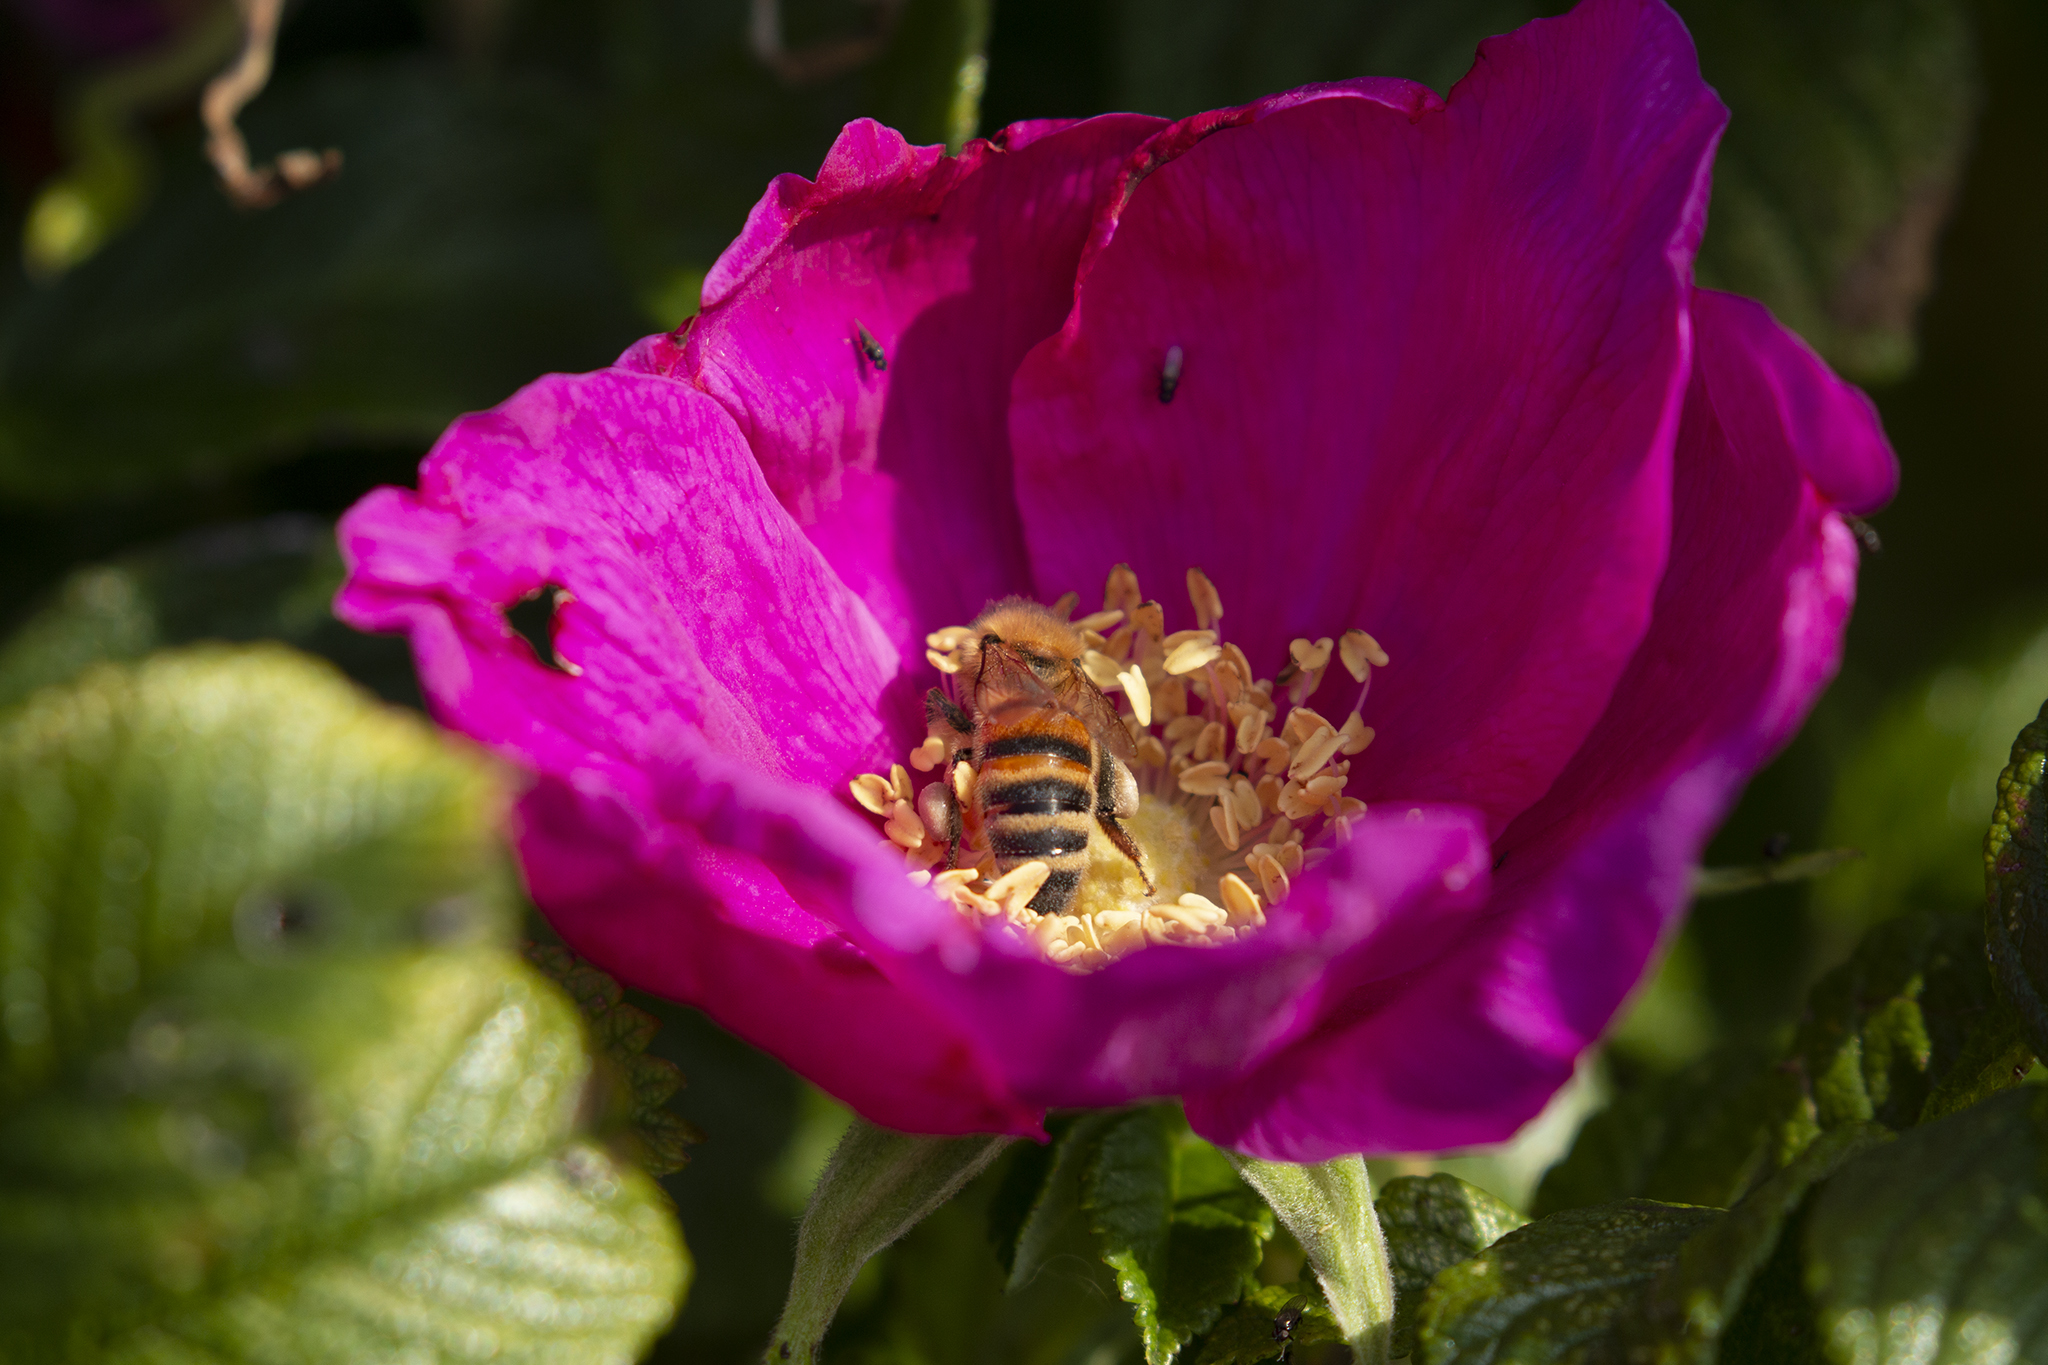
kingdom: Animalia
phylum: Arthropoda
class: Insecta
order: Hymenoptera
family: Apidae
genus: Apis
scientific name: Apis mellifera
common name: Honey bee
